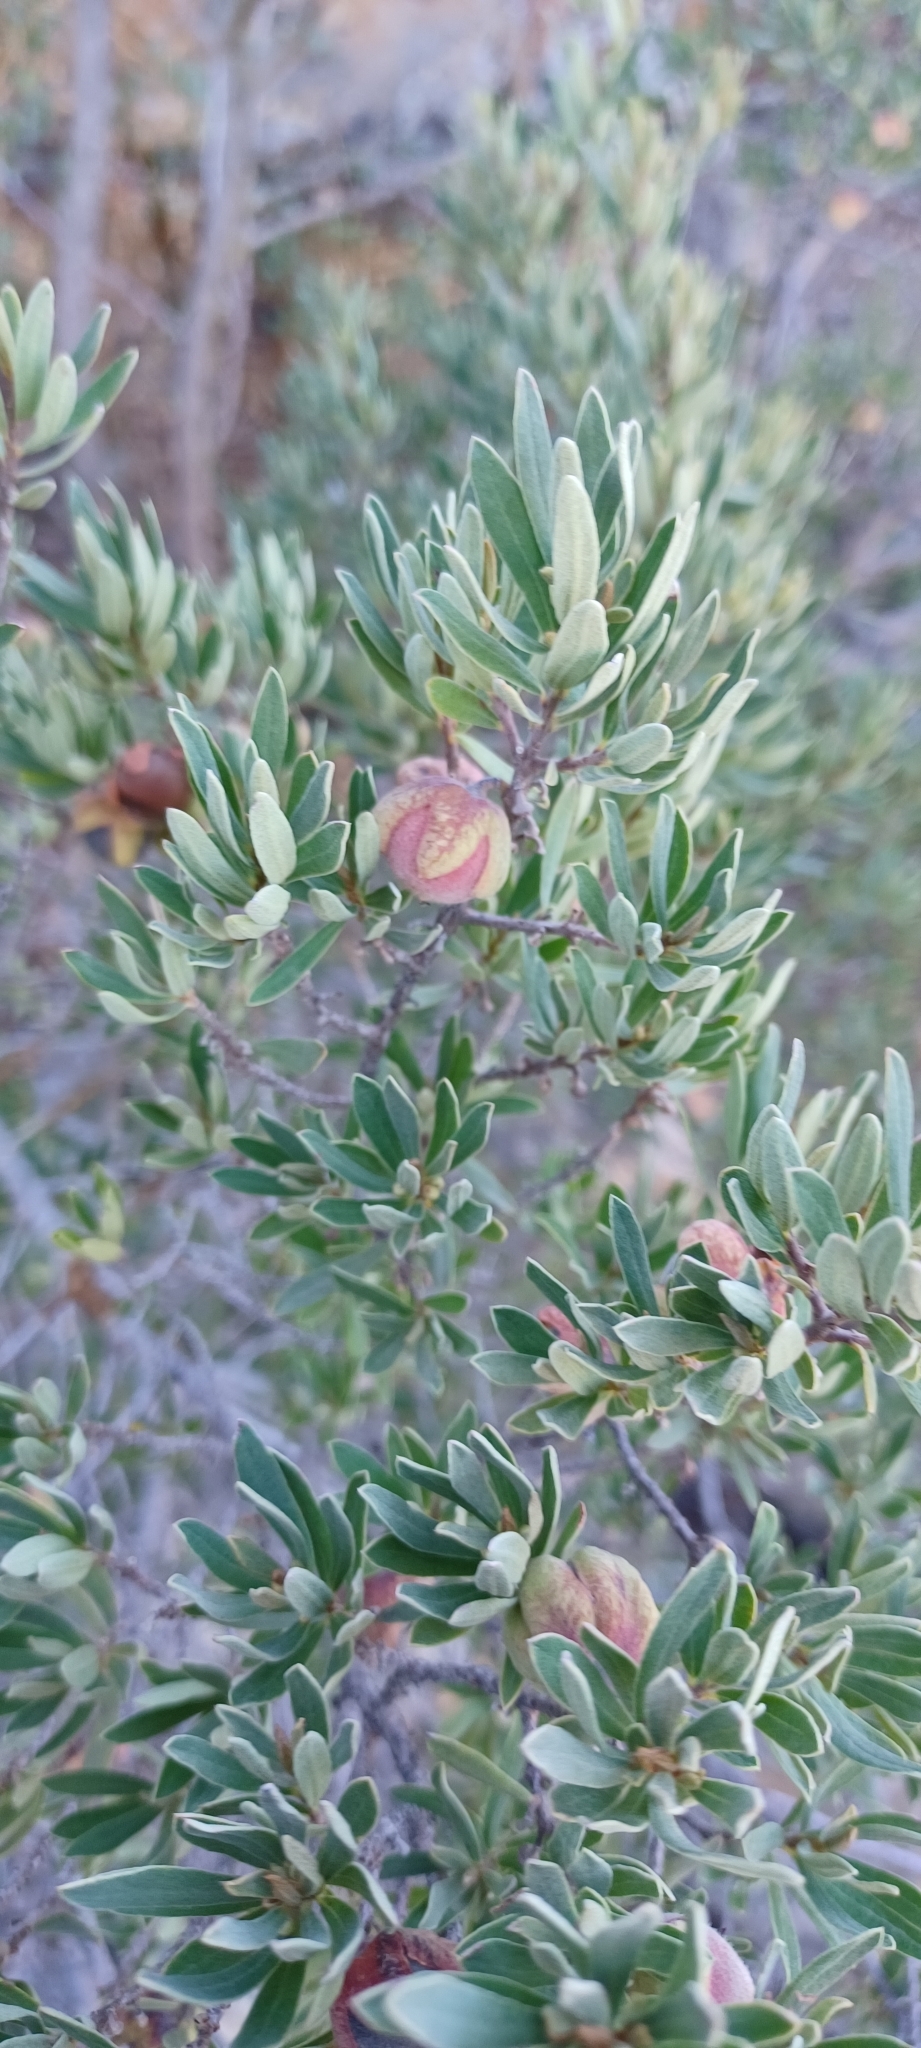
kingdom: Plantae
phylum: Tracheophyta
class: Magnoliopsida
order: Ericales
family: Ebenaceae
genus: Diospyros
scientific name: Diospyros pubescens
